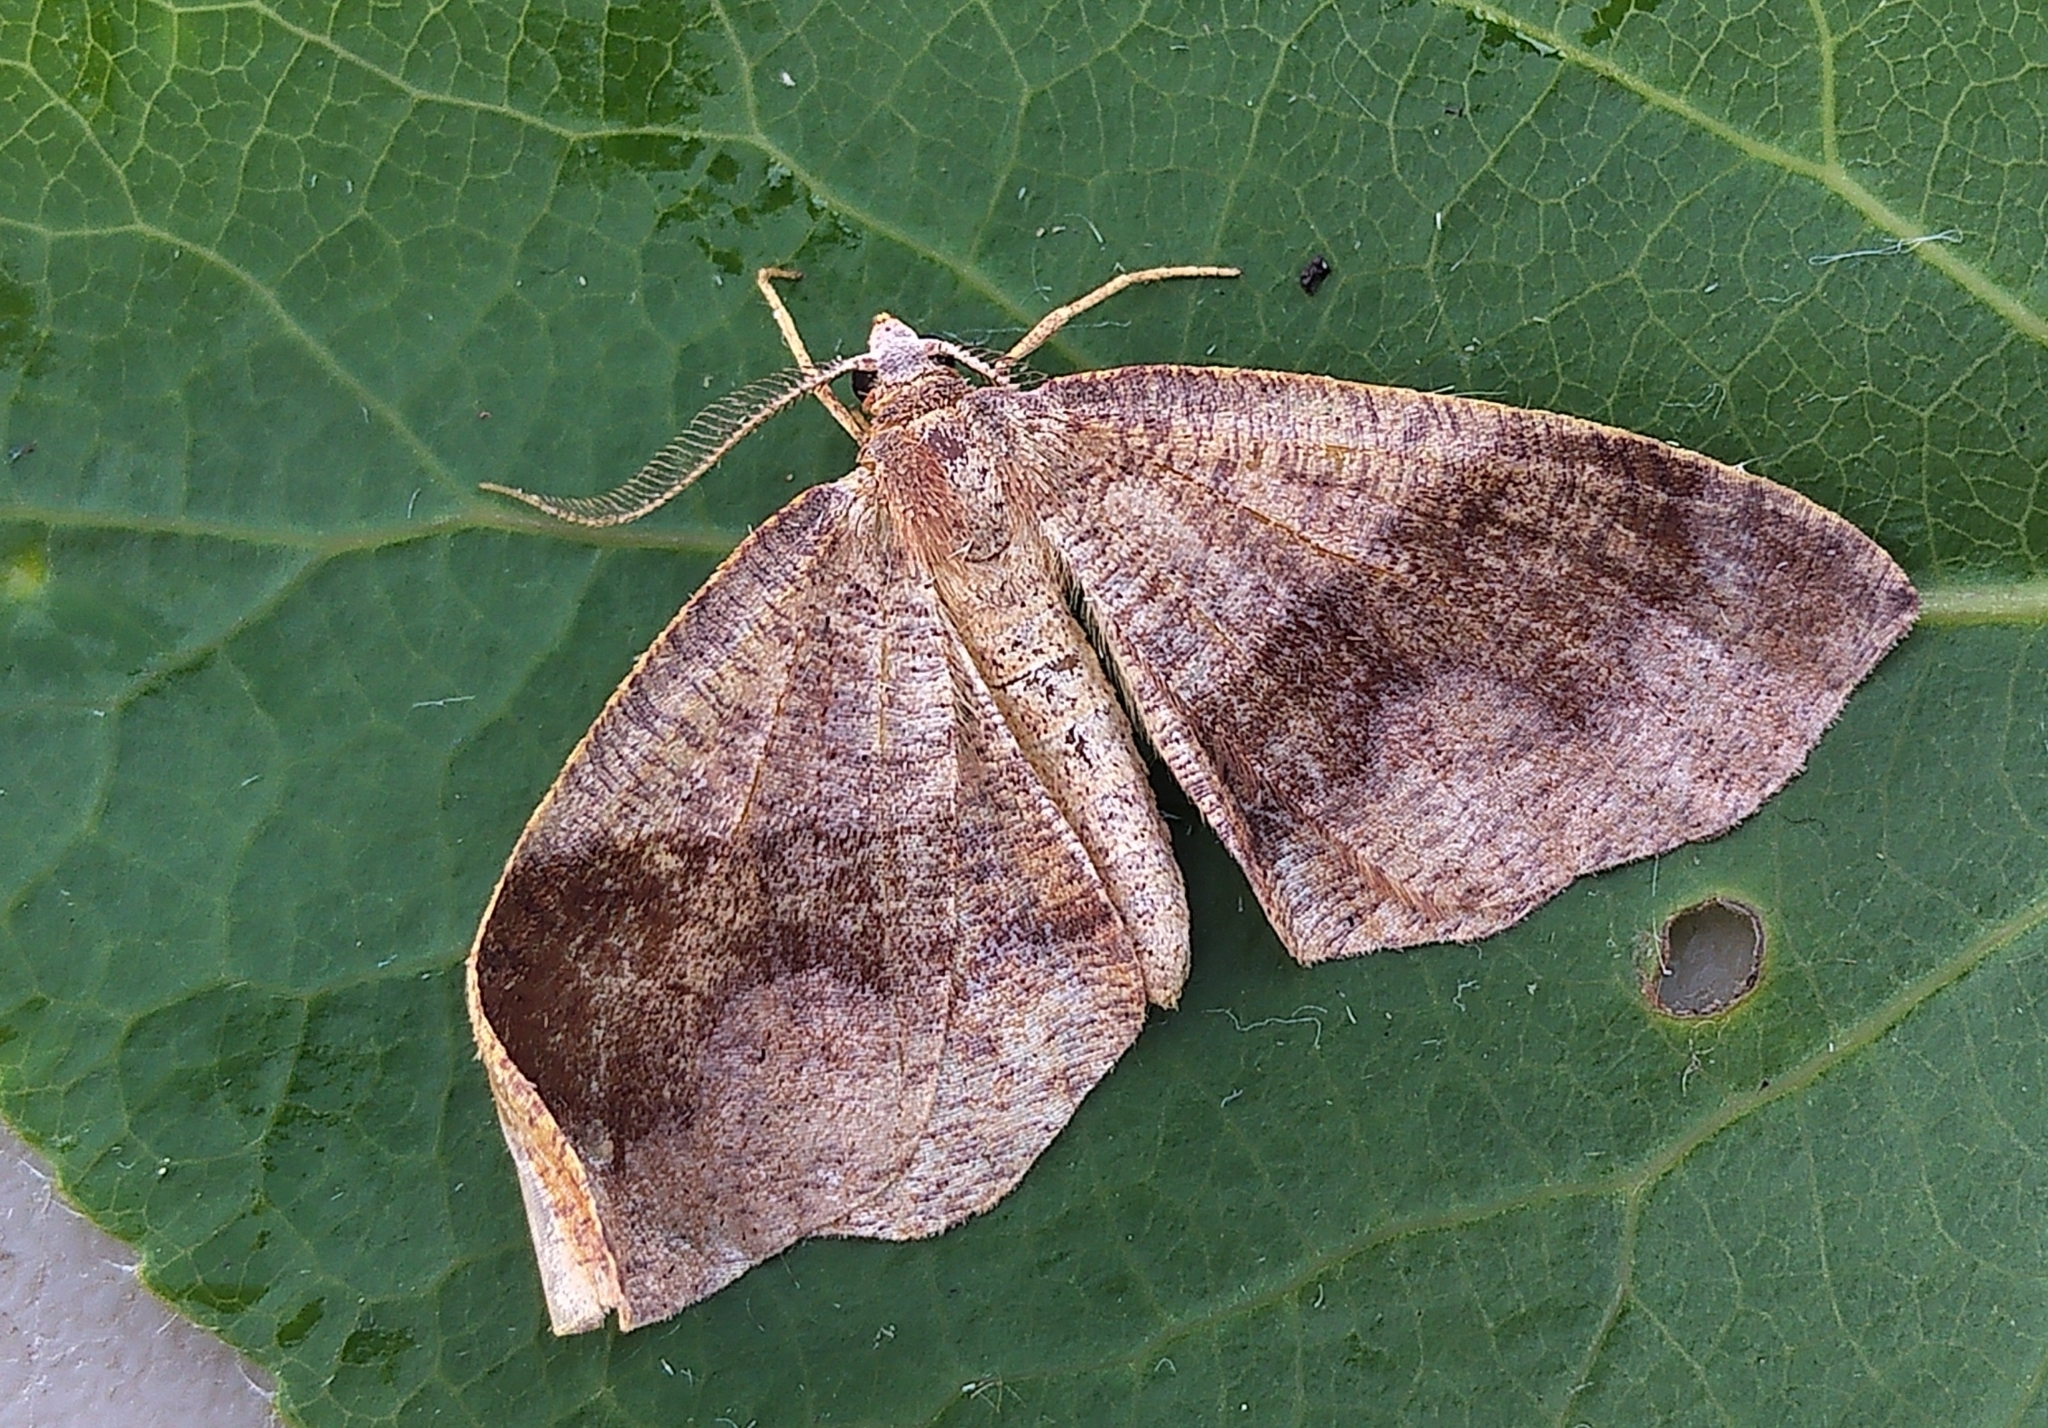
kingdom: Animalia
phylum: Arthropoda
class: Insecta
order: Lepidoptera
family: Geometridae
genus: Plagodis
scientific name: Plagodis pulveraria
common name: Barred umber
